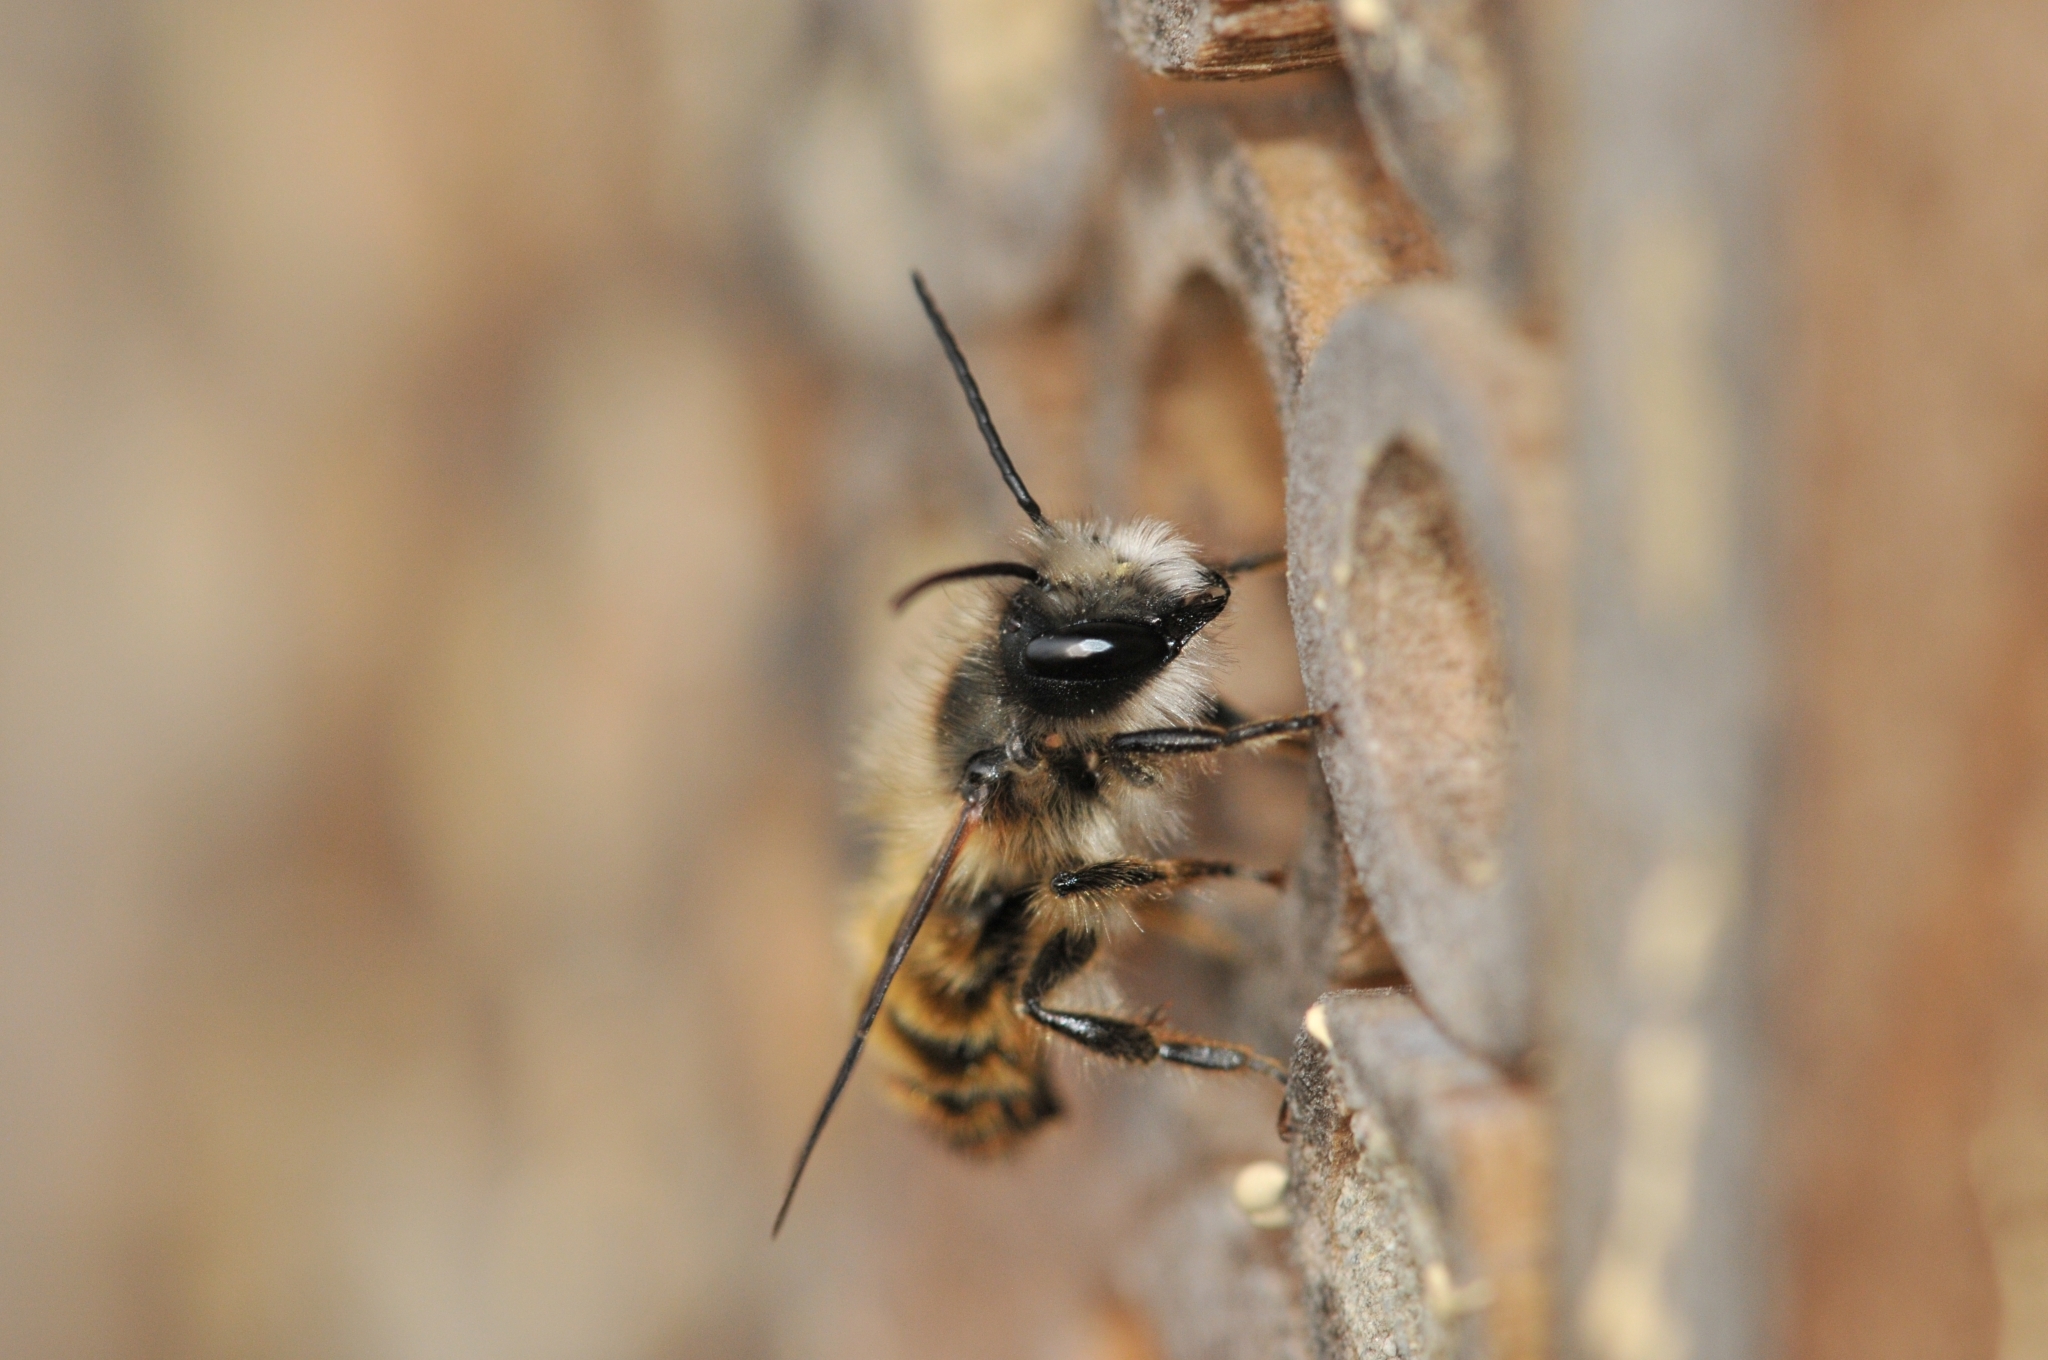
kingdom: Animalia
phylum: Arthropoda
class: Insecta
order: Hymenoptera
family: Megachilidae
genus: Osmia
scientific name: Osmia bicornis
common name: Red mason bee
